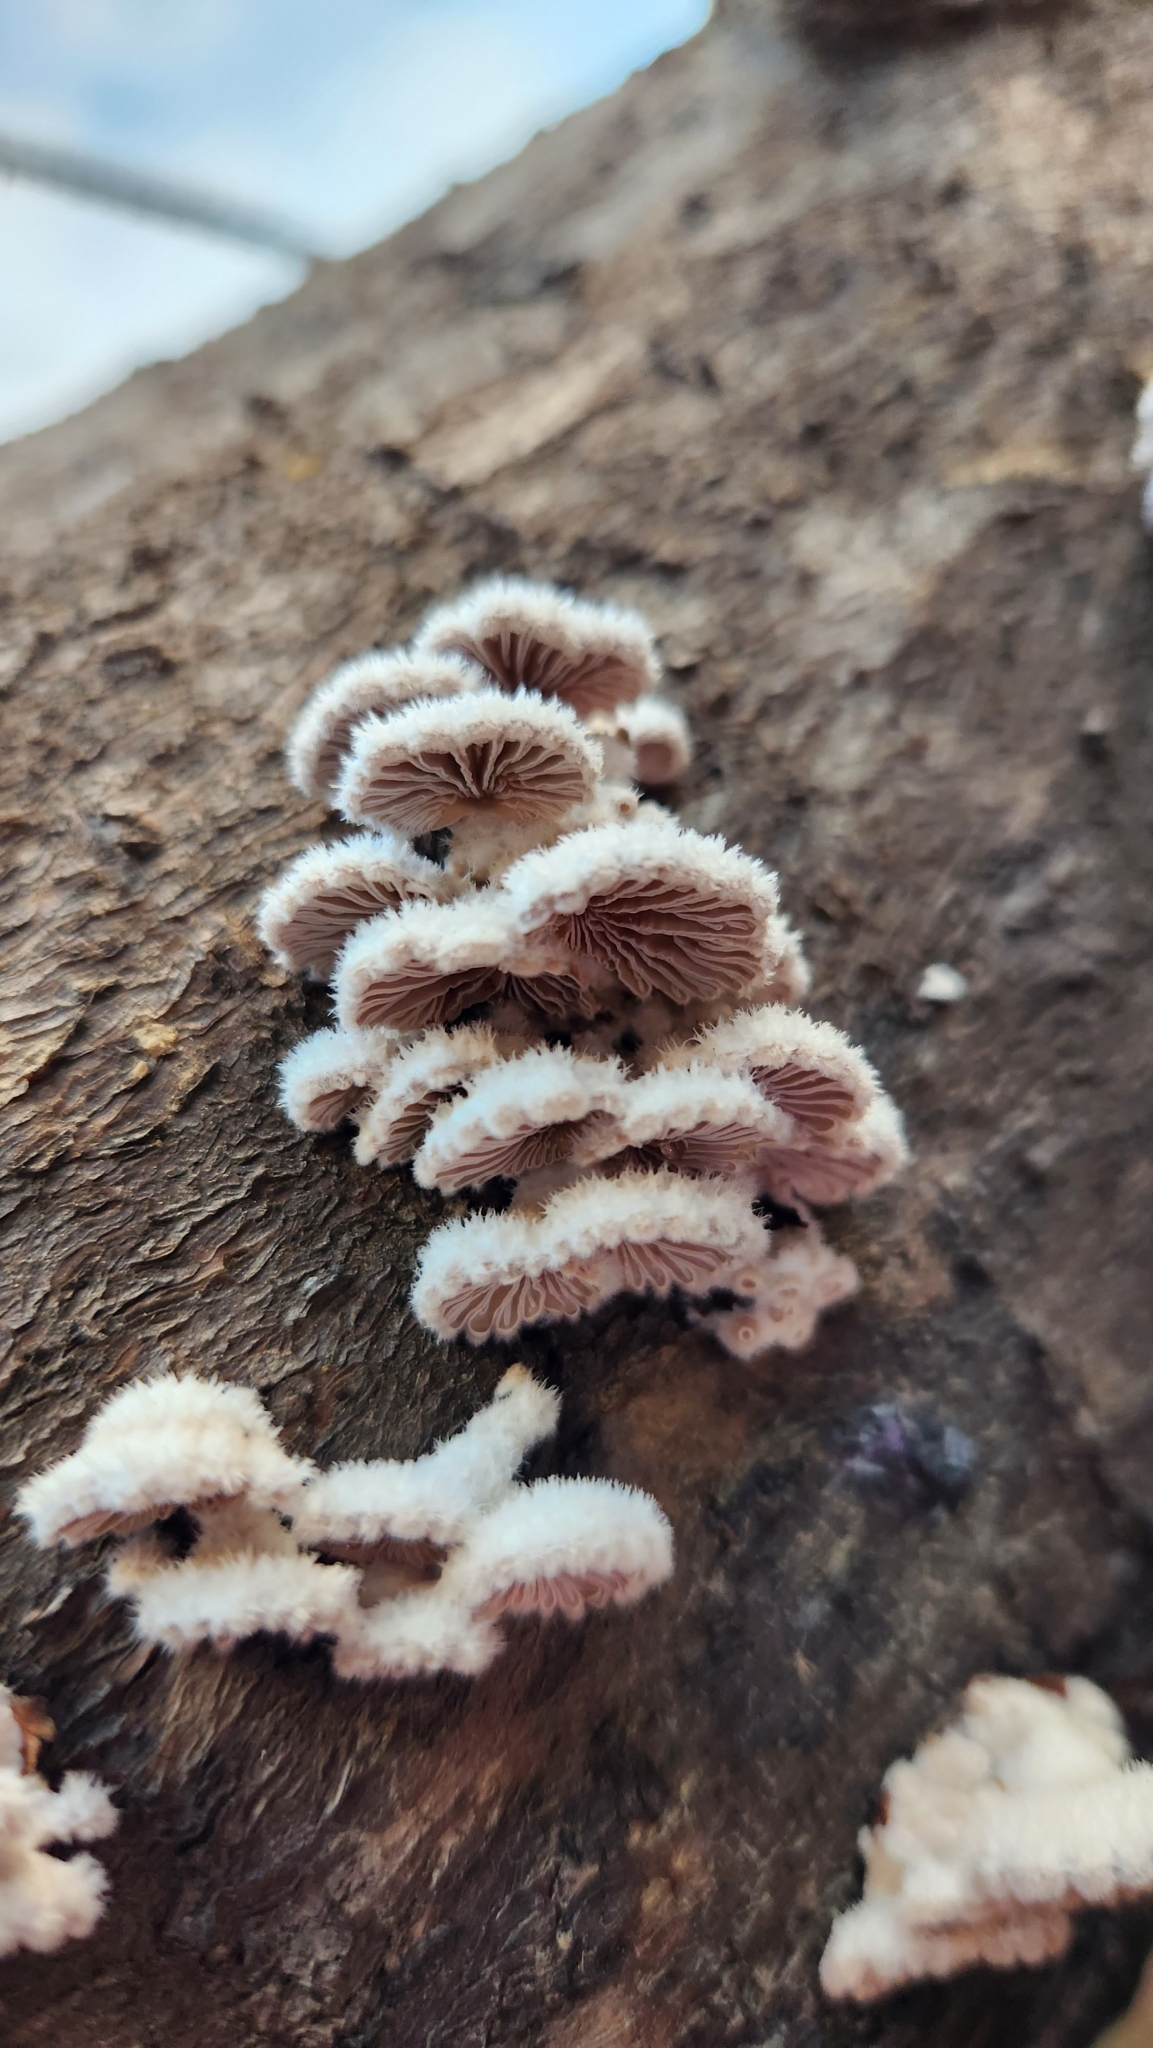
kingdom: Fungi
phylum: Basidiomycota
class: Agaricomycetes
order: Agaricales
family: Schizophyllaceae
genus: Schizophyllum
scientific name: Schizophyllum commune
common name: Common porecrust
